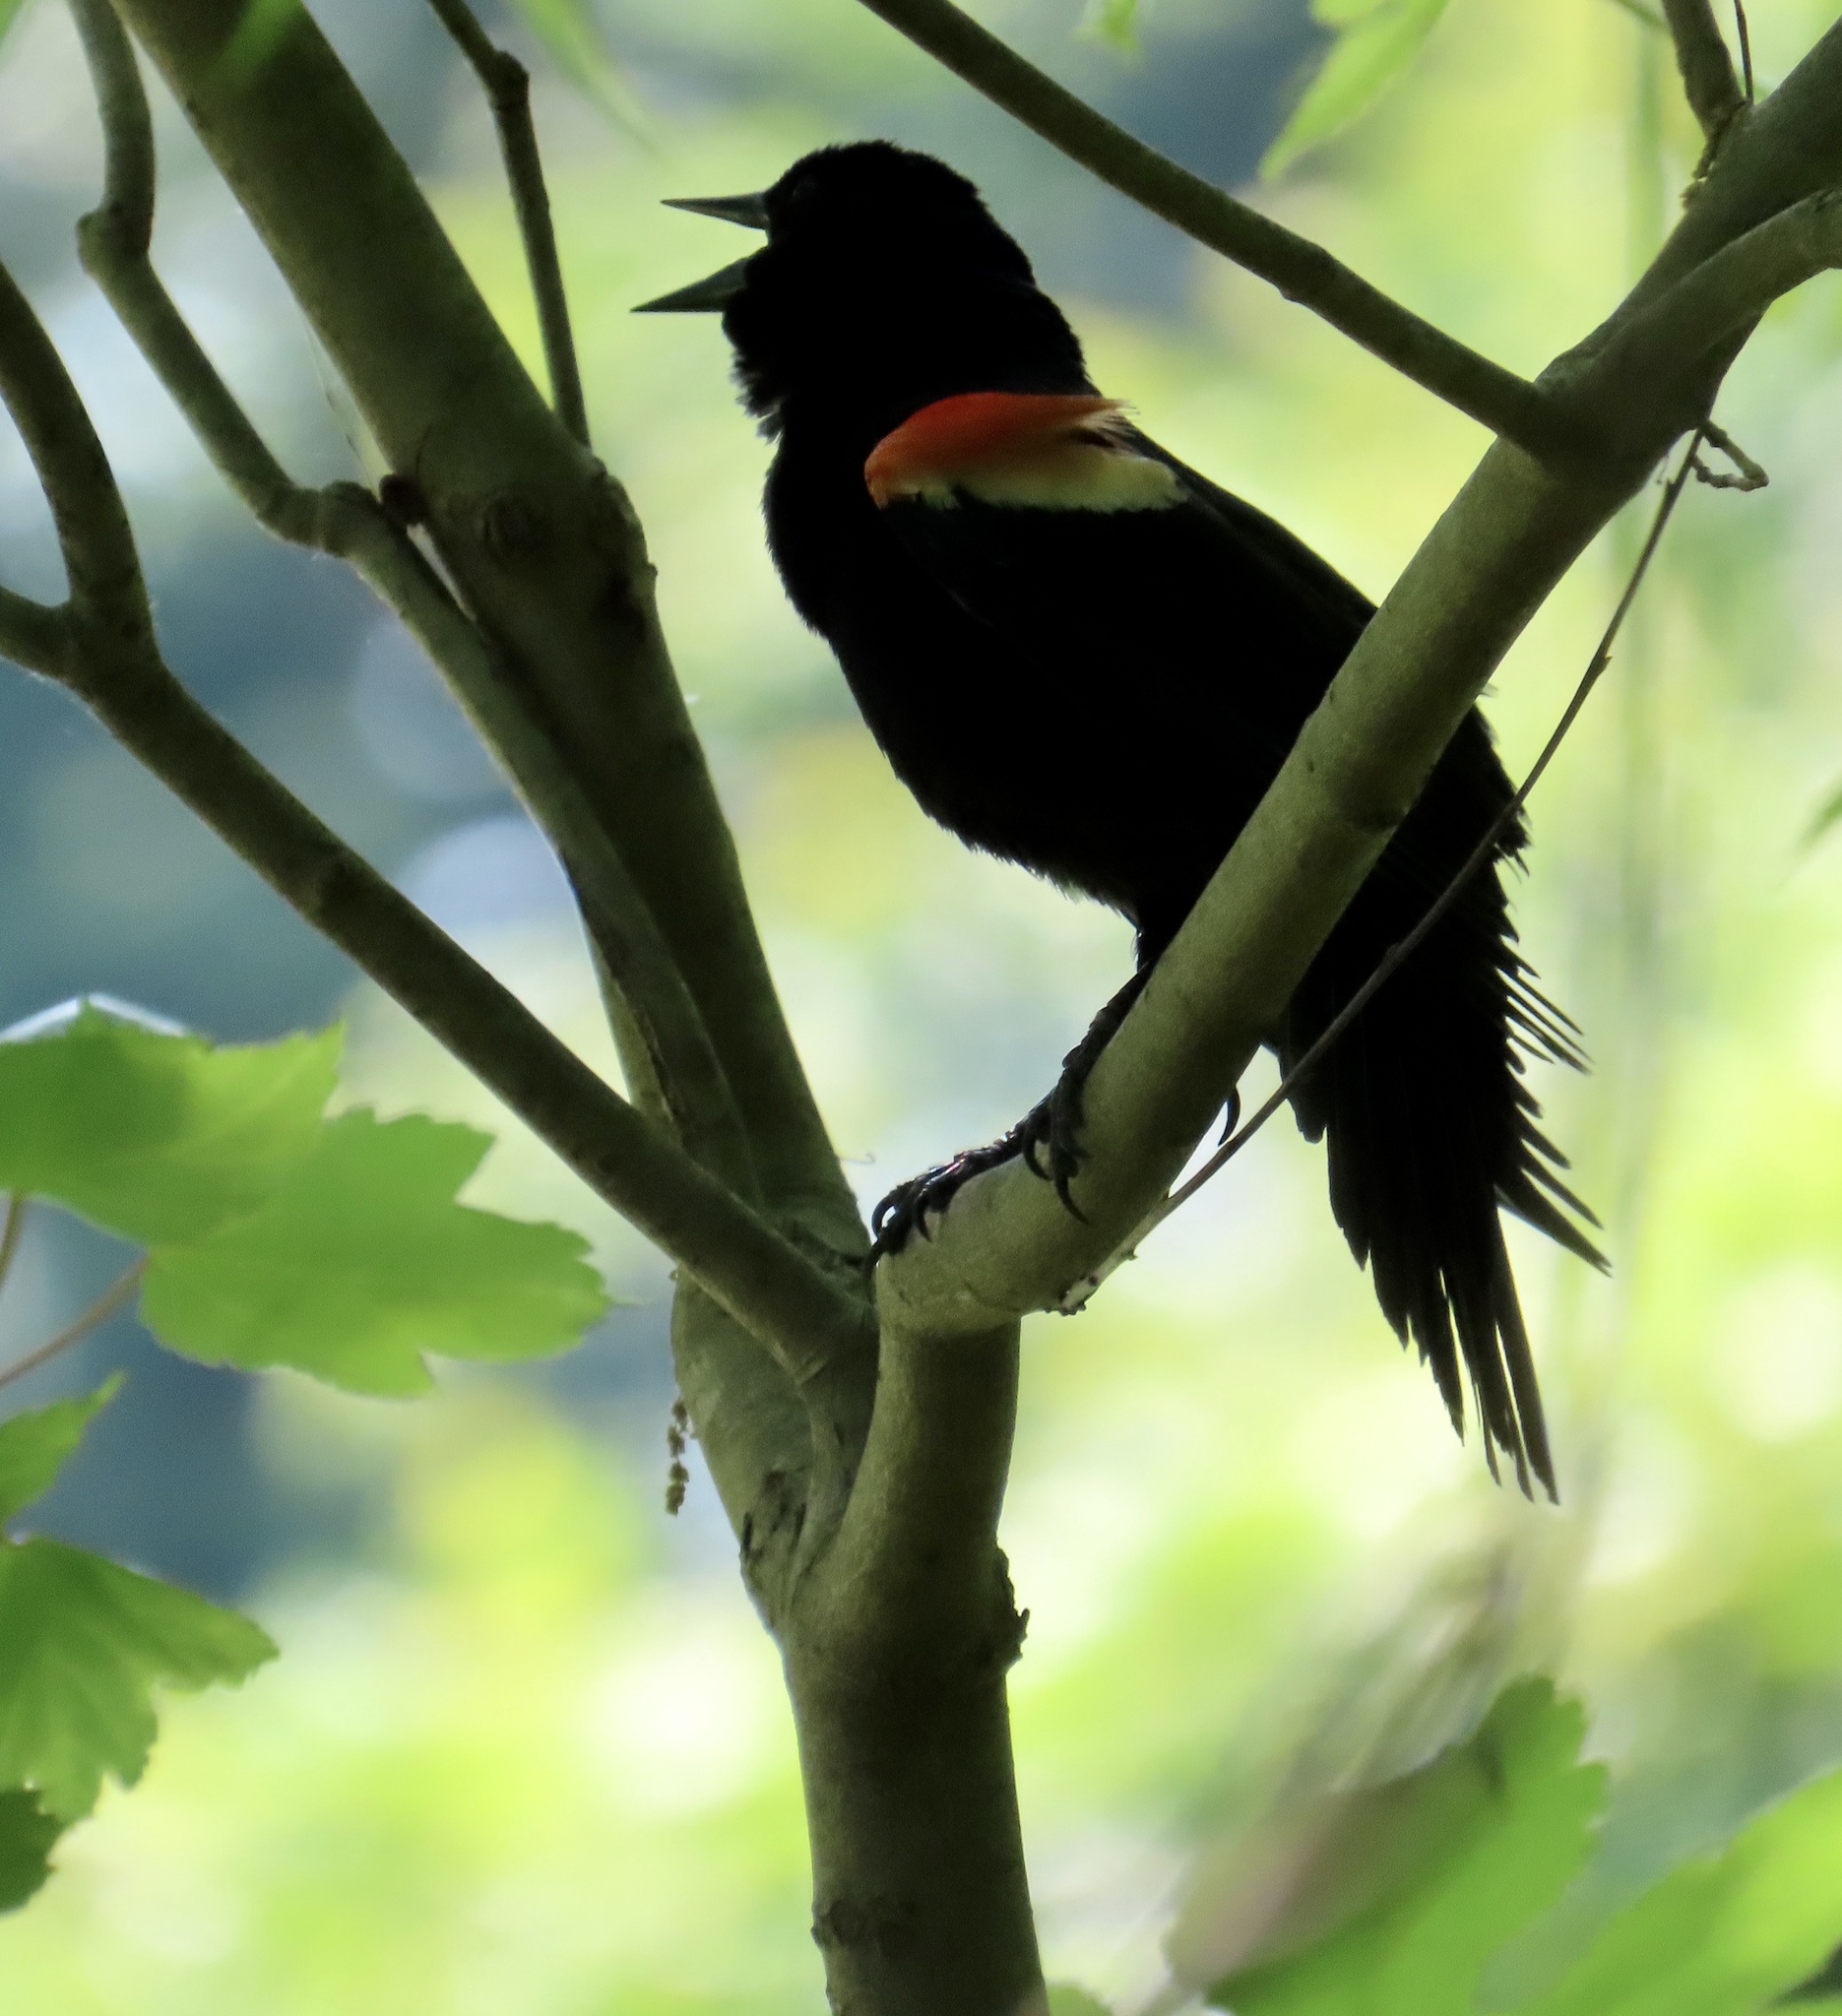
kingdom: Animalia
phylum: Chordata
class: Aves
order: Passeriformes
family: Icteridae
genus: Agelaius
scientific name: Agelaius phoeniceus
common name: Red-winged blackbird
